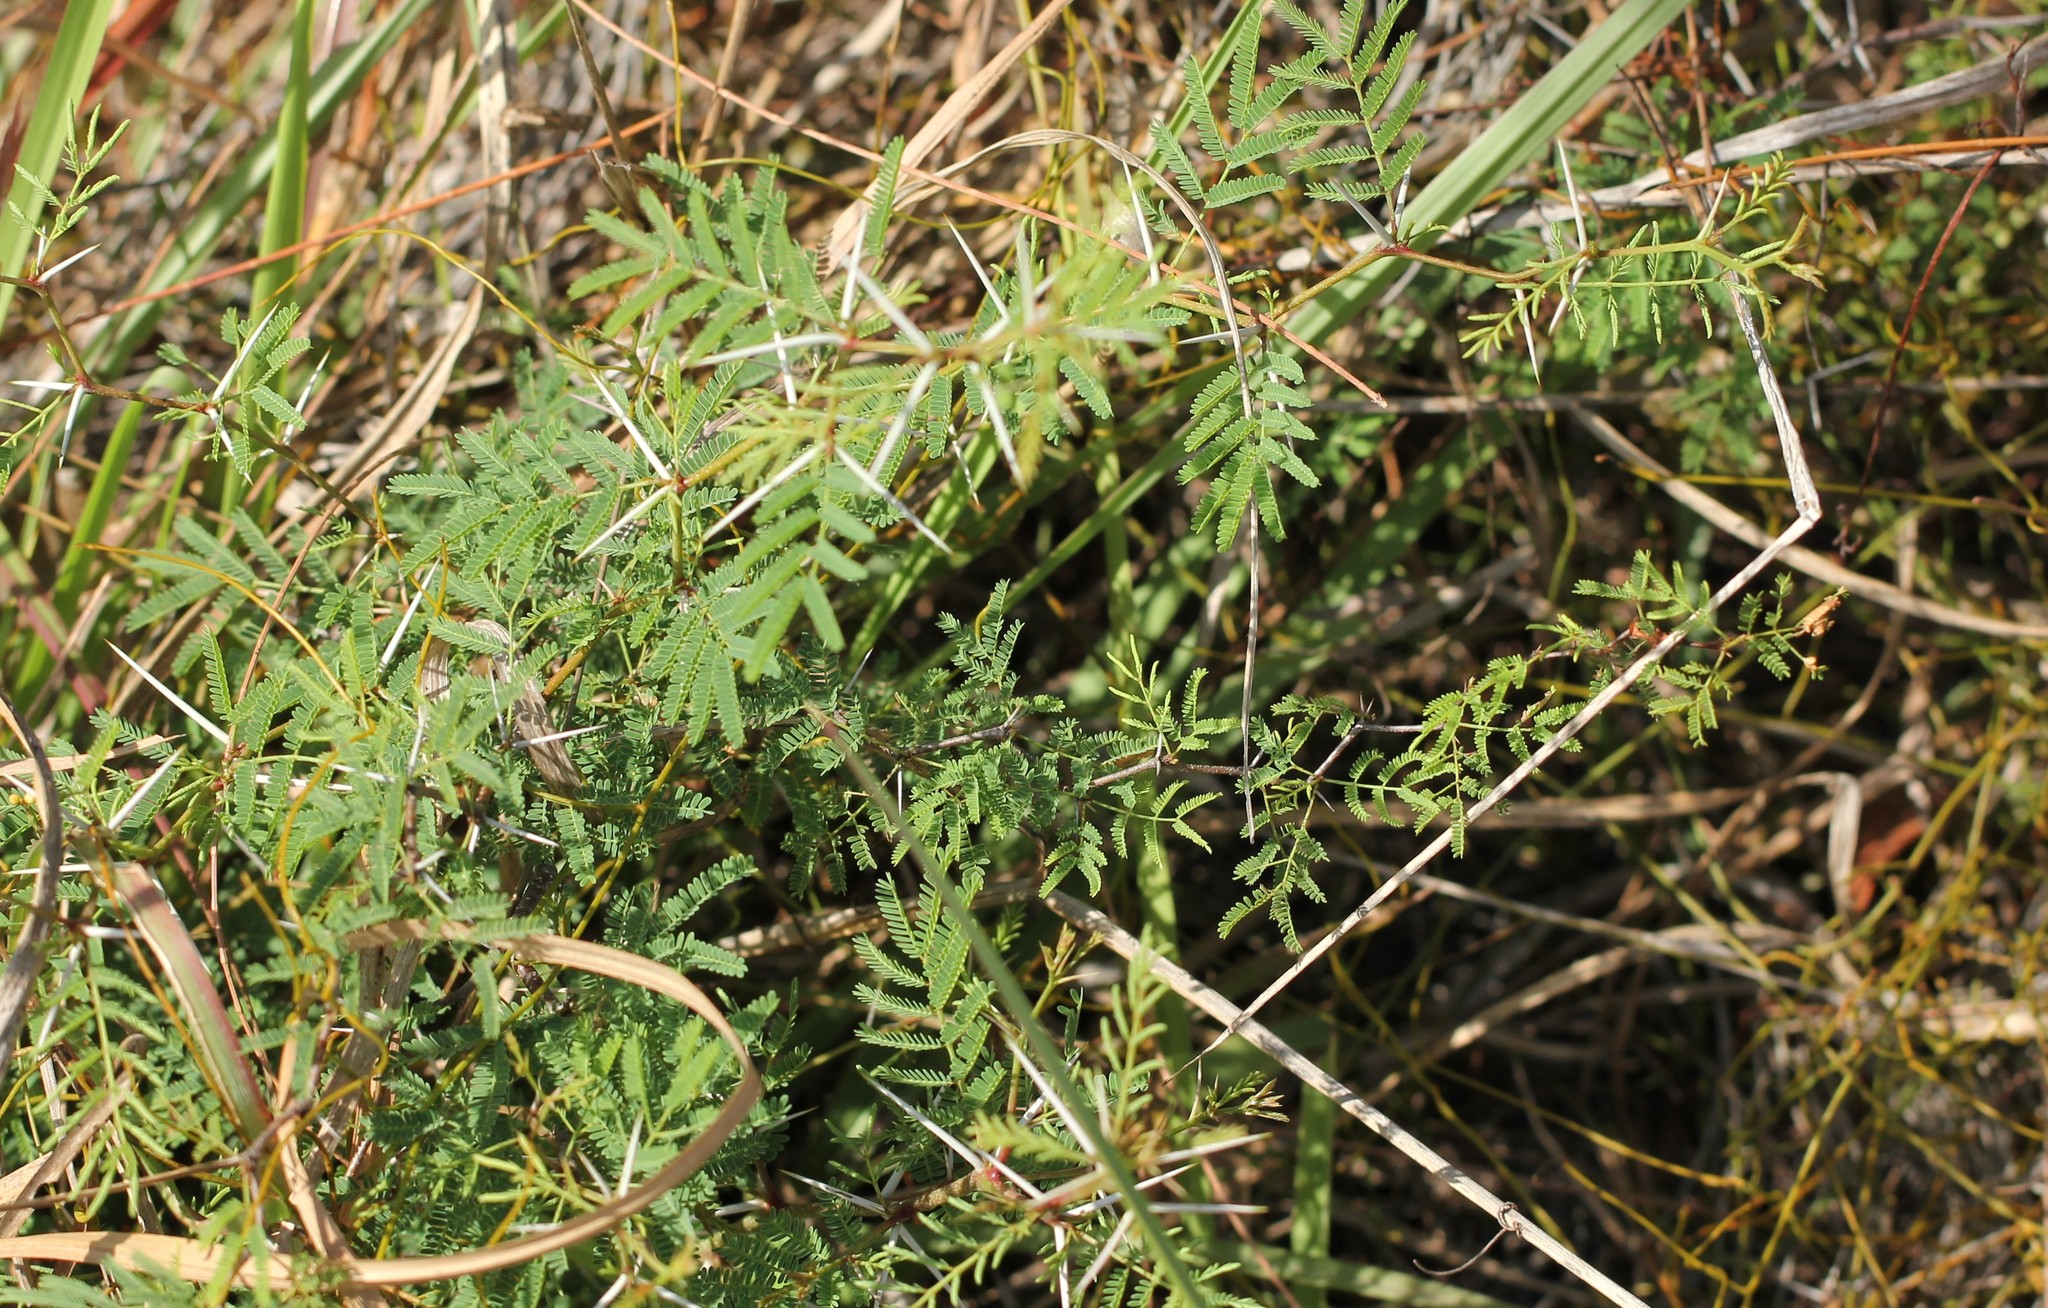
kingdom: Plantae
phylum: Tracheophyta
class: Magnoliopsida
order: Fabales
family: Fabaceae
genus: Vachellia
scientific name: Vachellia farnesiana
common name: Sweet acacia
